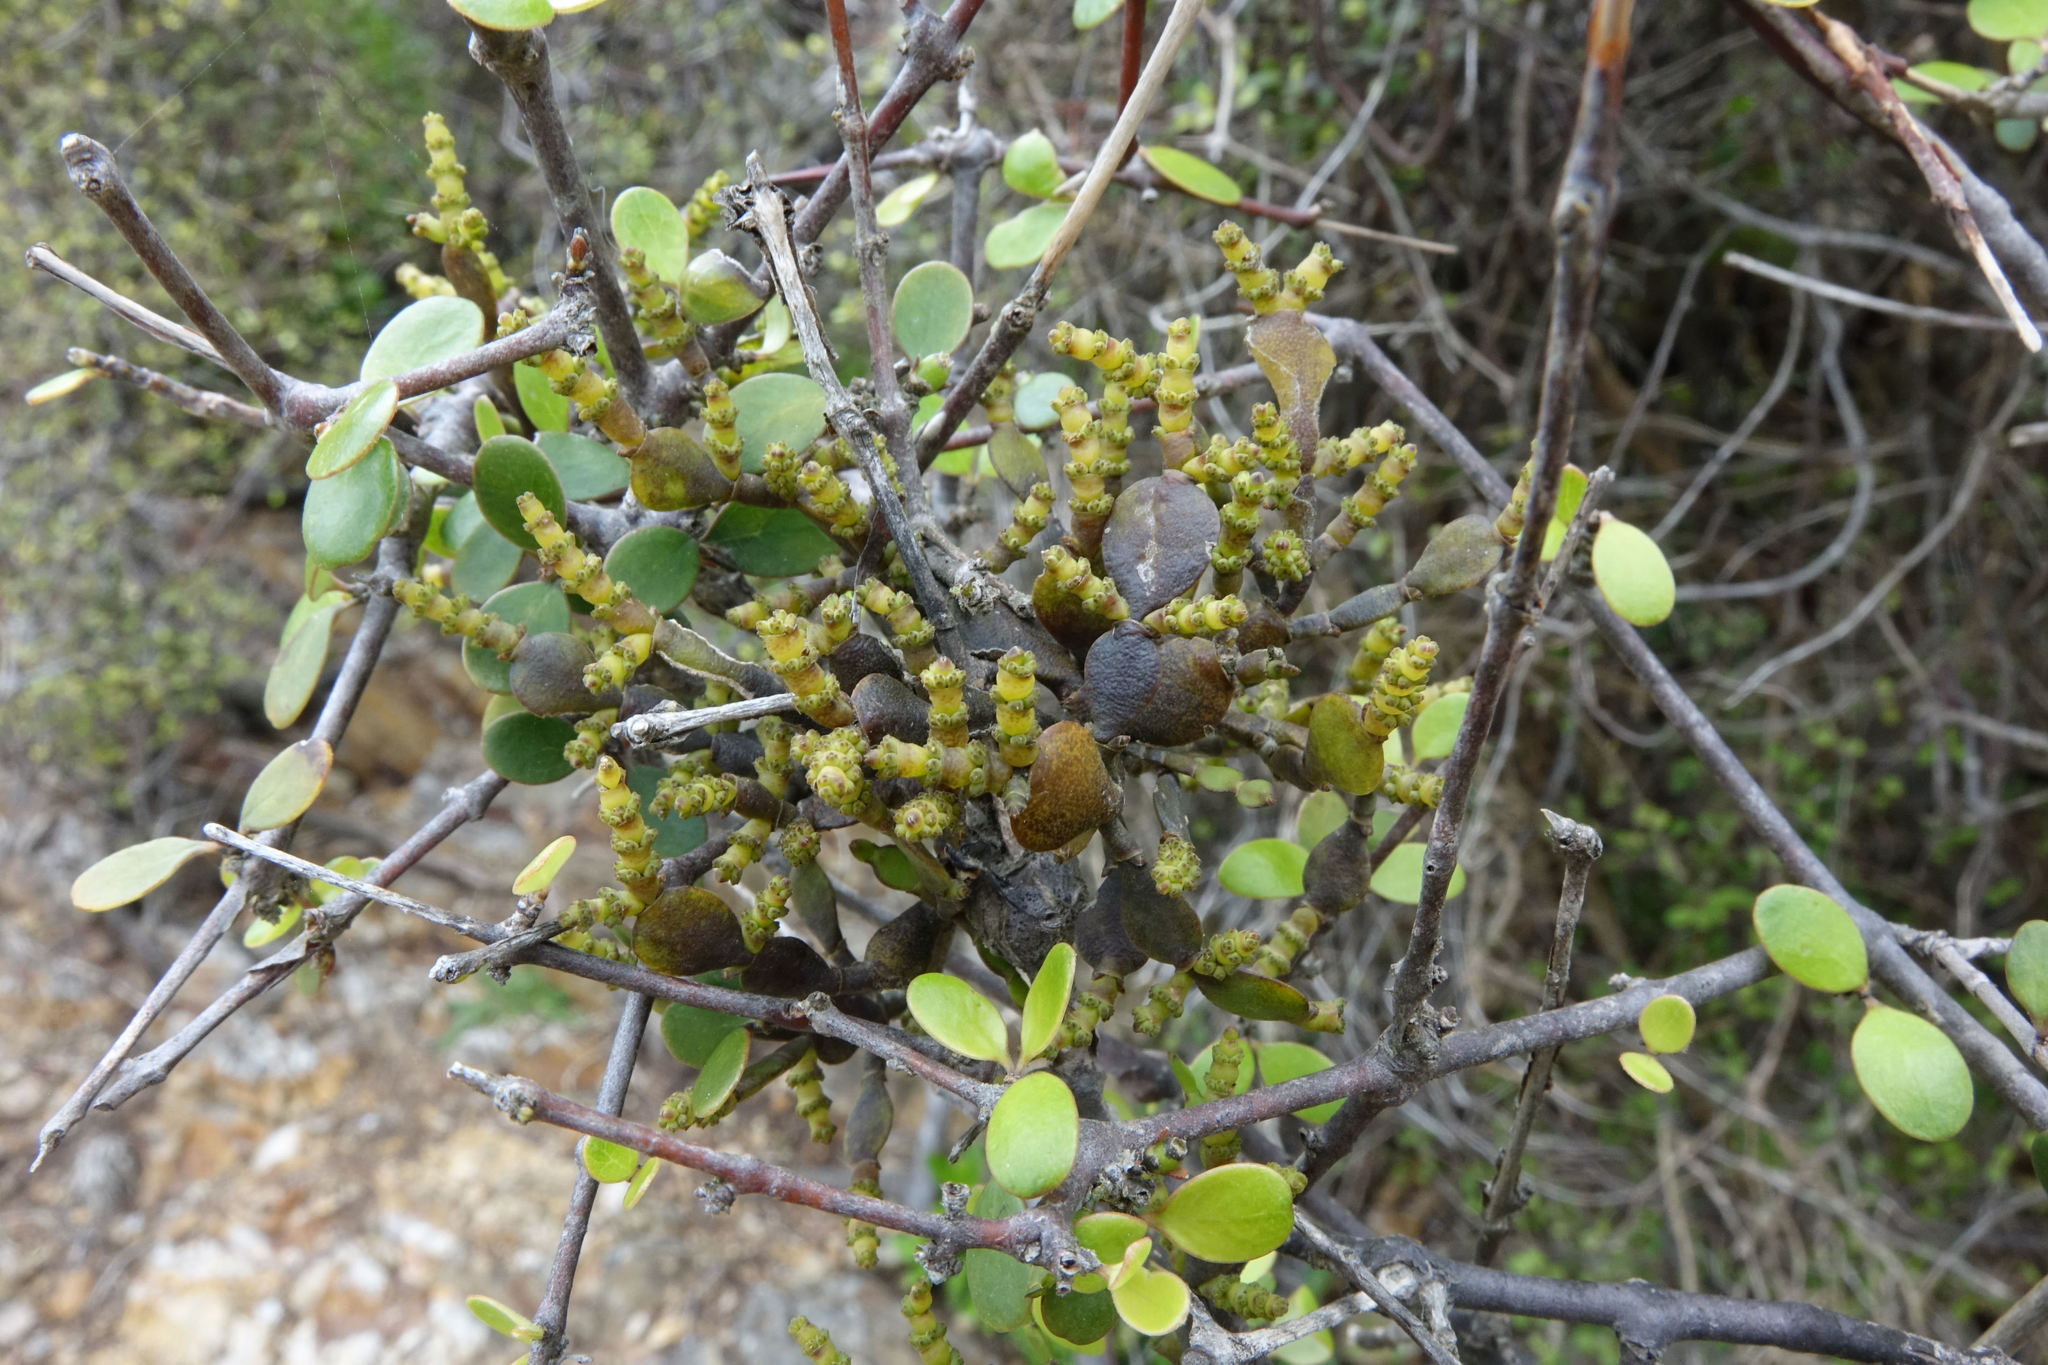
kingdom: Plantae
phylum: Tracheophyta
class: Magnoliopsida
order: Santalales
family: Viscaceae
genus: Korthalsella
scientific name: Korthalsella lindsayi
